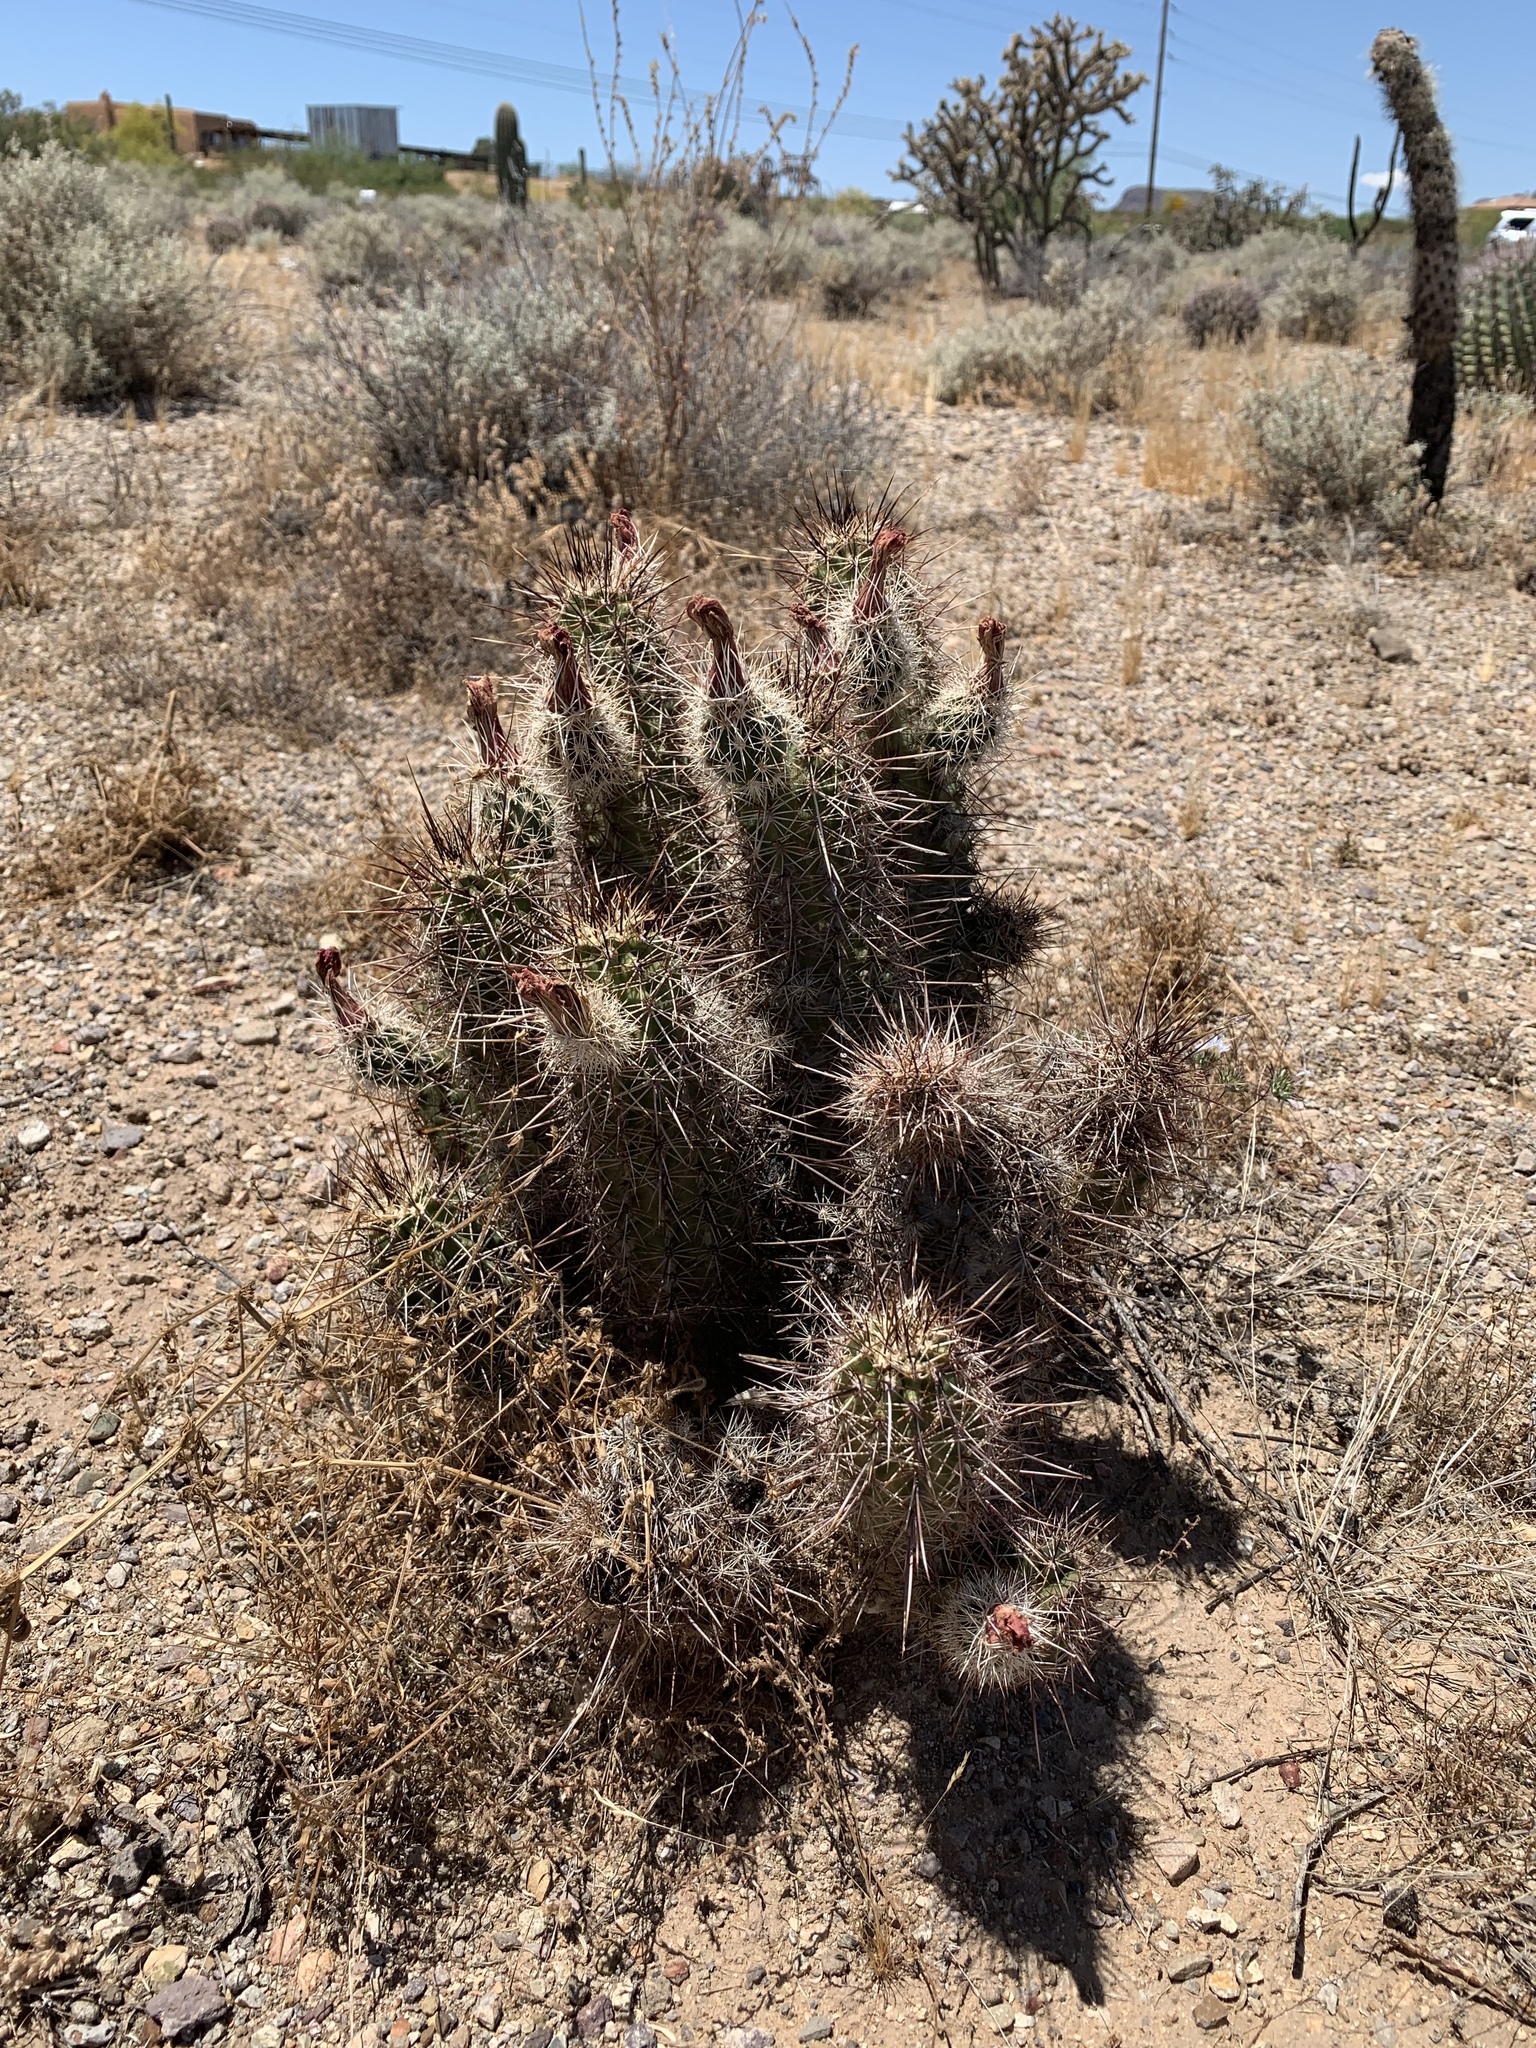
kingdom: Plantae
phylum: Tracheophyta
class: Magnoliopsida
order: Caryophyllales
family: Cactaceae
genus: Echinocereus
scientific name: Echinocereus fasciculatus
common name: Bundle hedgehog
